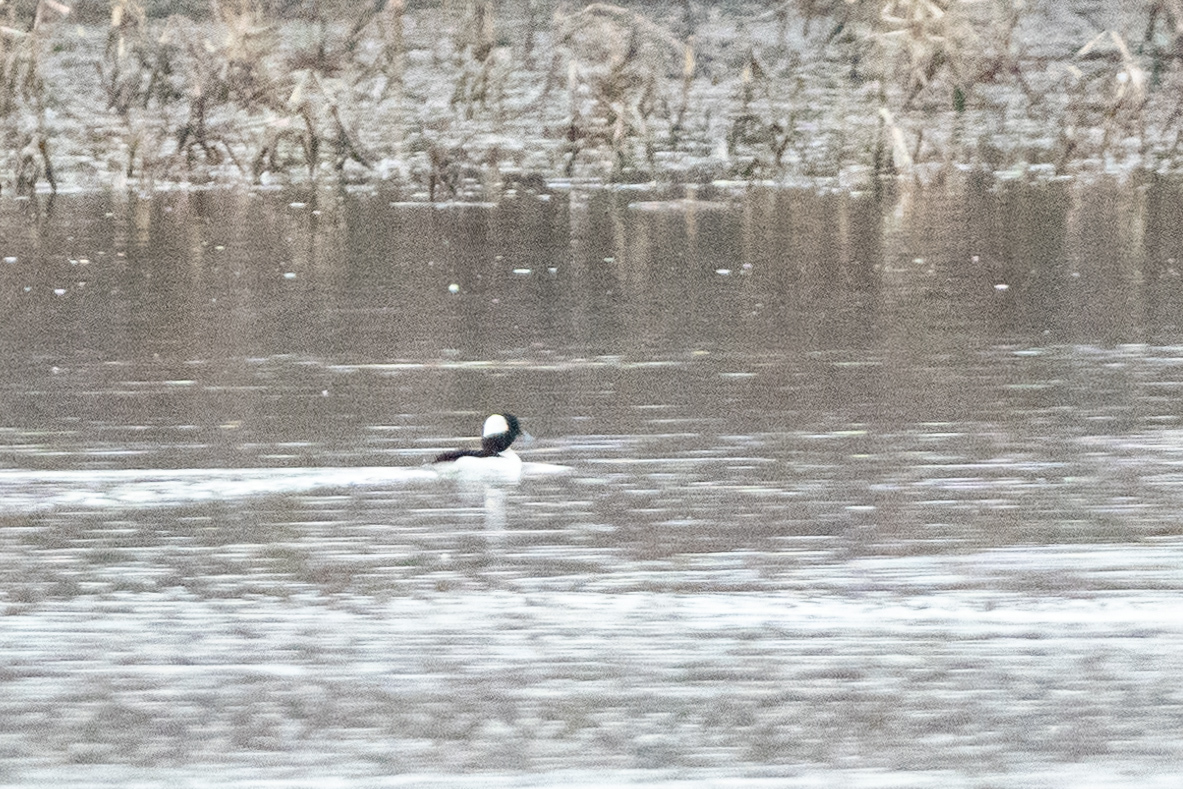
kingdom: Animalia
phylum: Chordata
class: Aves
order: Anseriformes
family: Anatidae
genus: Bucephala
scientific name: Bucephala albeola
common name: Bufflehead
